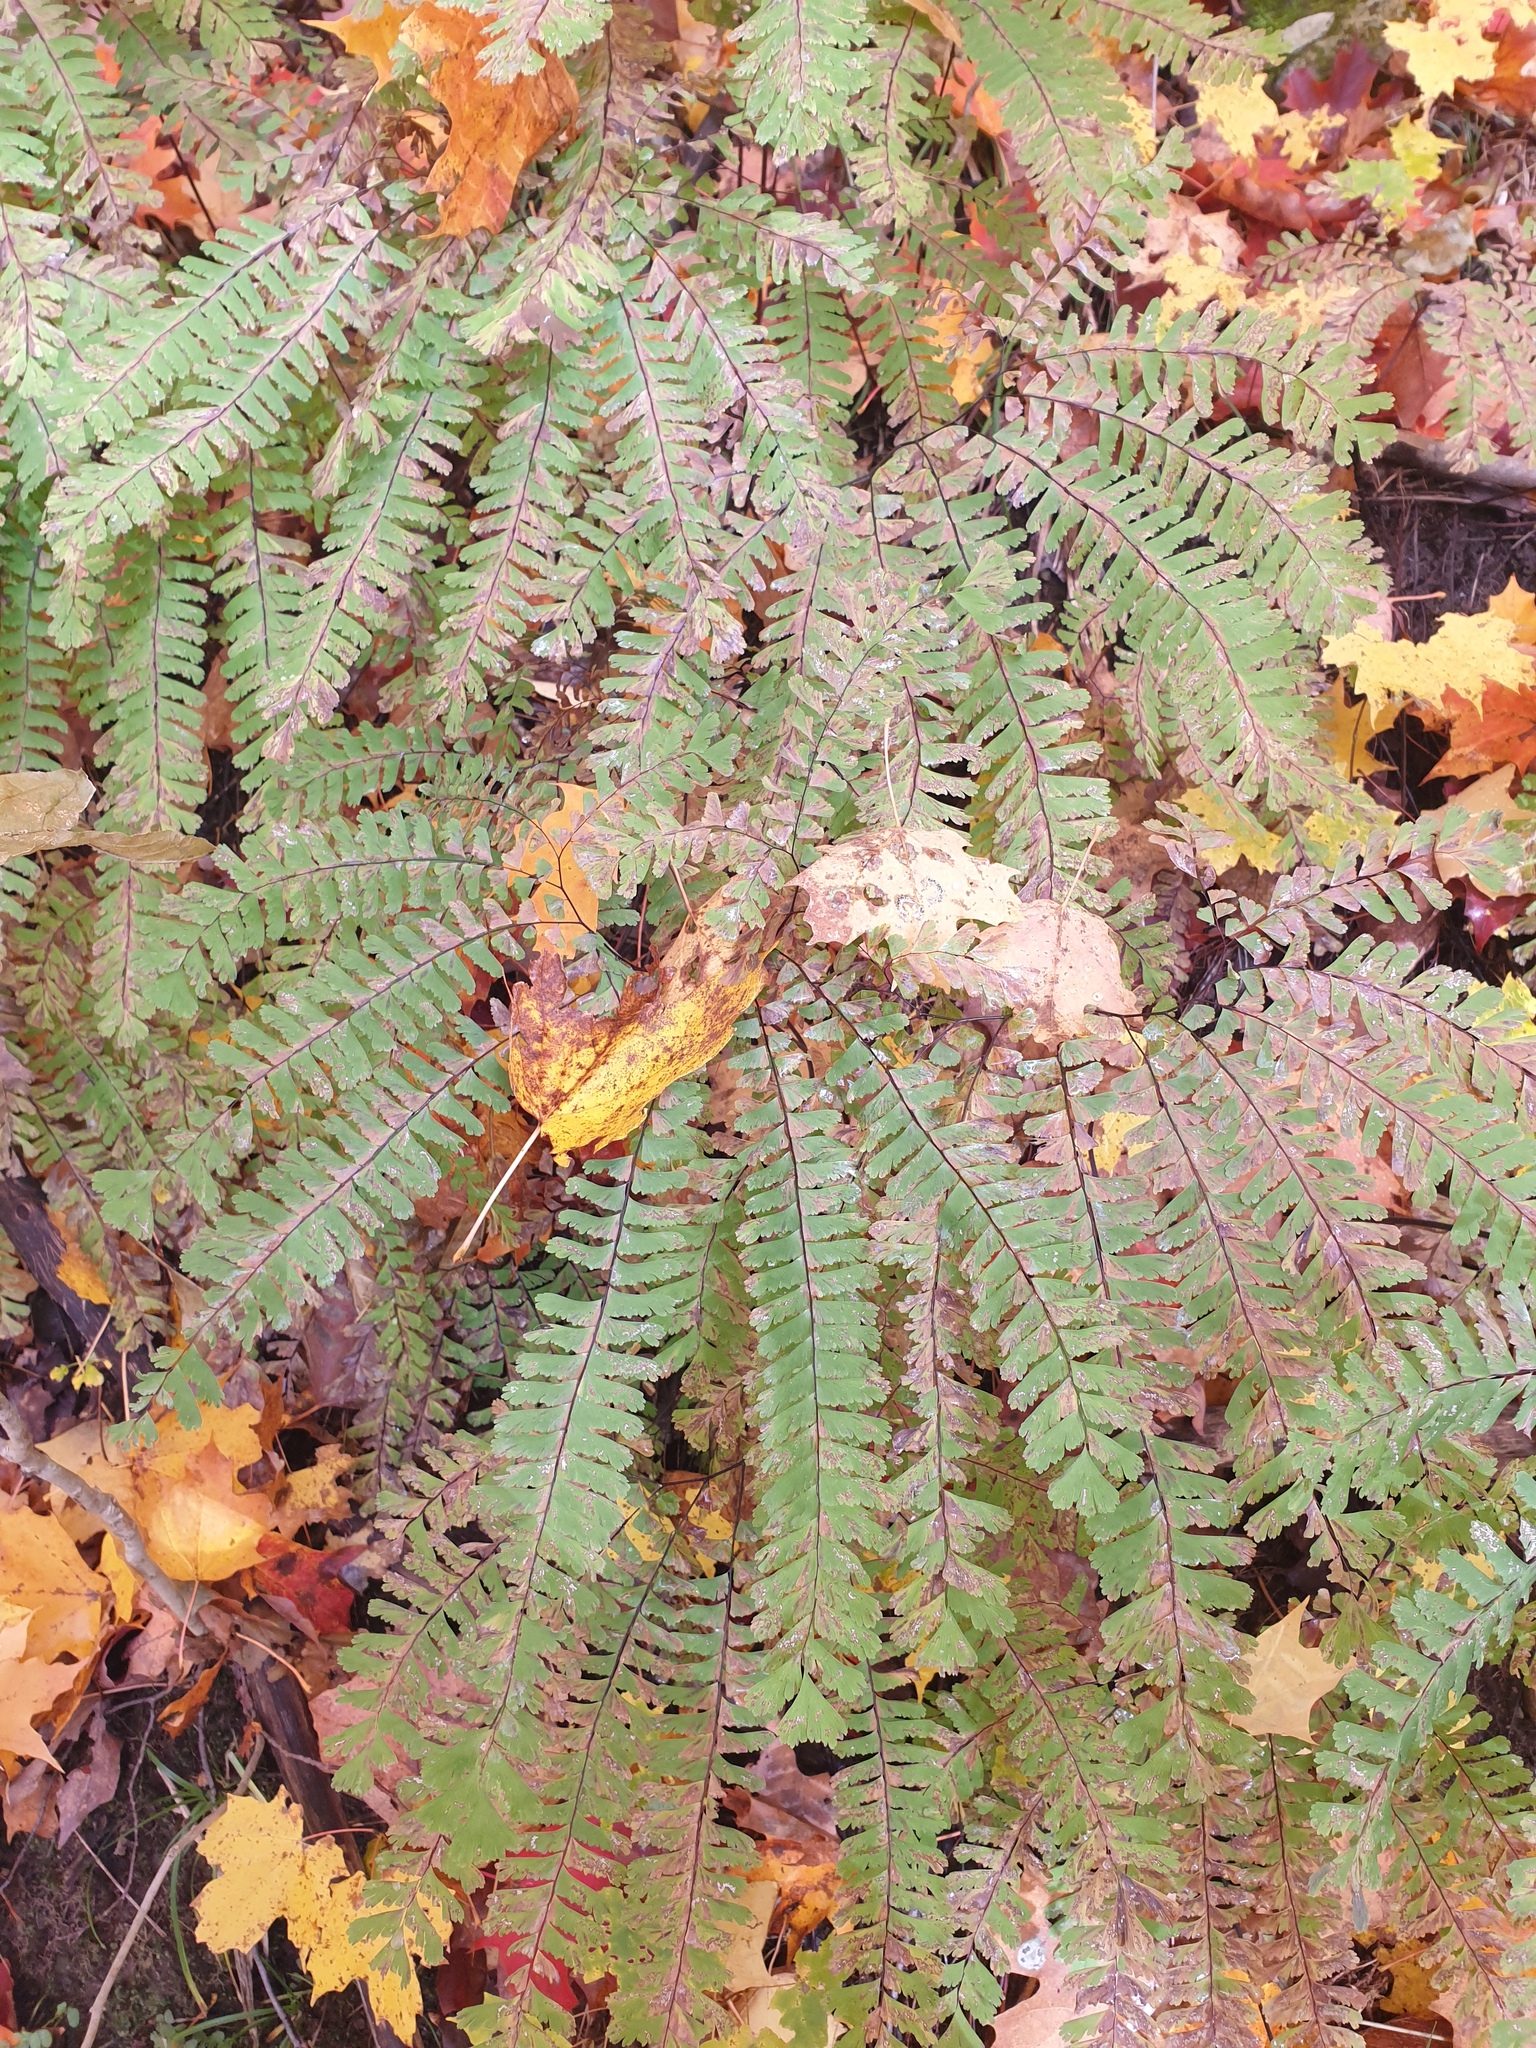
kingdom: Plantae
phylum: Tracheophyta
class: Polypodiopsida
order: Polypodiales
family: Pteridaceae
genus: Adiantum
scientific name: Adiantum pedatum
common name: Five-finger fern
